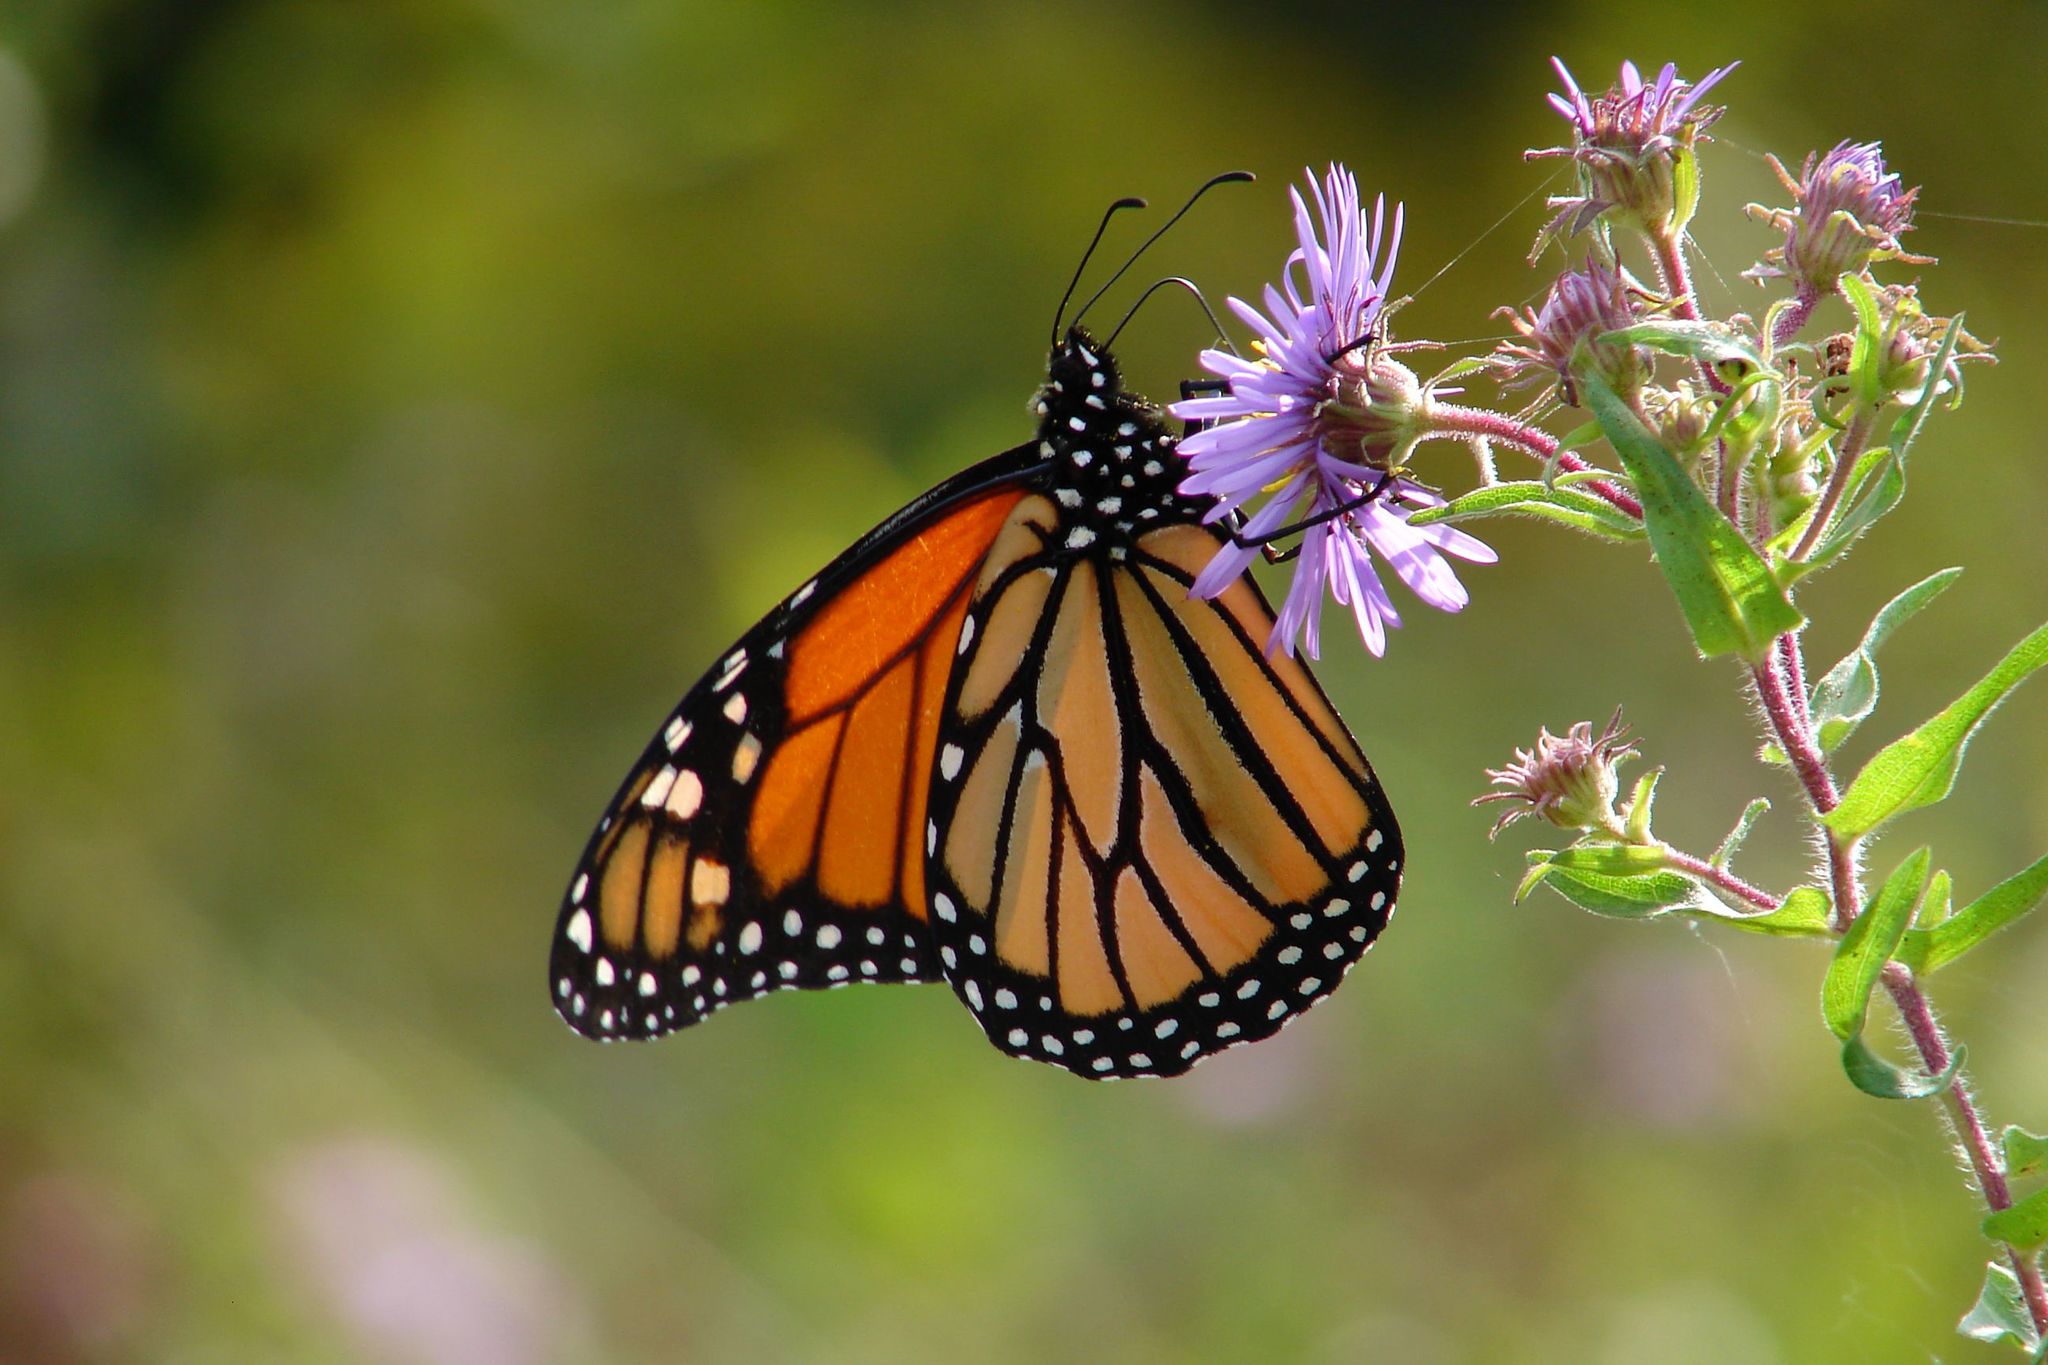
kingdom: Animalia
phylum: Arthropoda
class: Insecta
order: Lepidoptera
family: Nymphalidae
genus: Danaus
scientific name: Danaus plexippus
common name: Monarch
